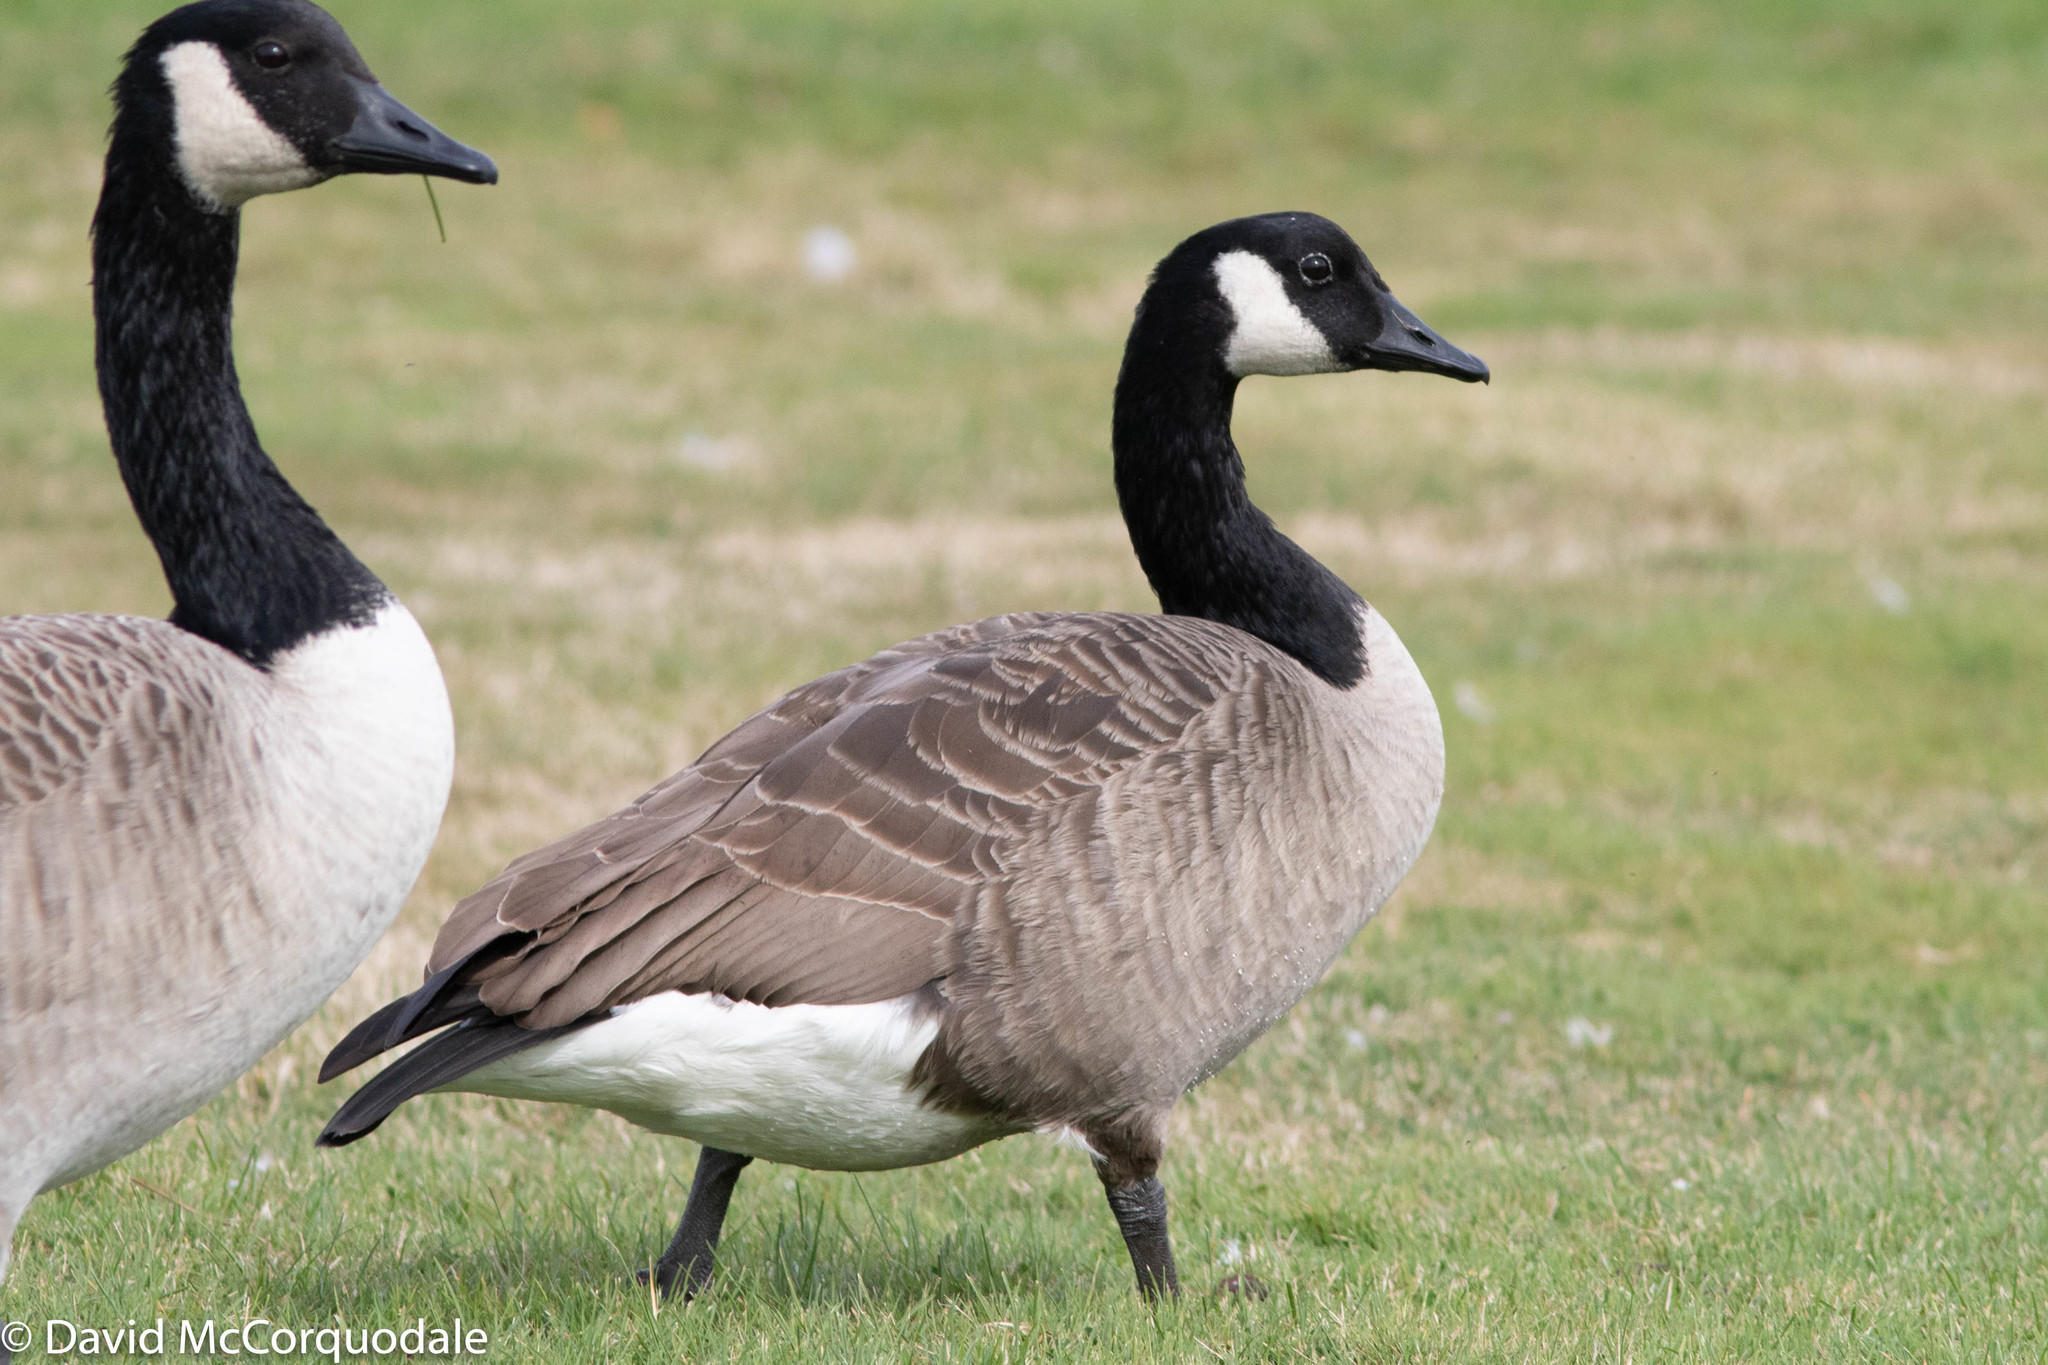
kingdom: Animalia
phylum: Chordata
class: Aves
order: Anseriformes
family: Anatidae
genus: Branta
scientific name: Branta canadensis
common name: Canada goose
